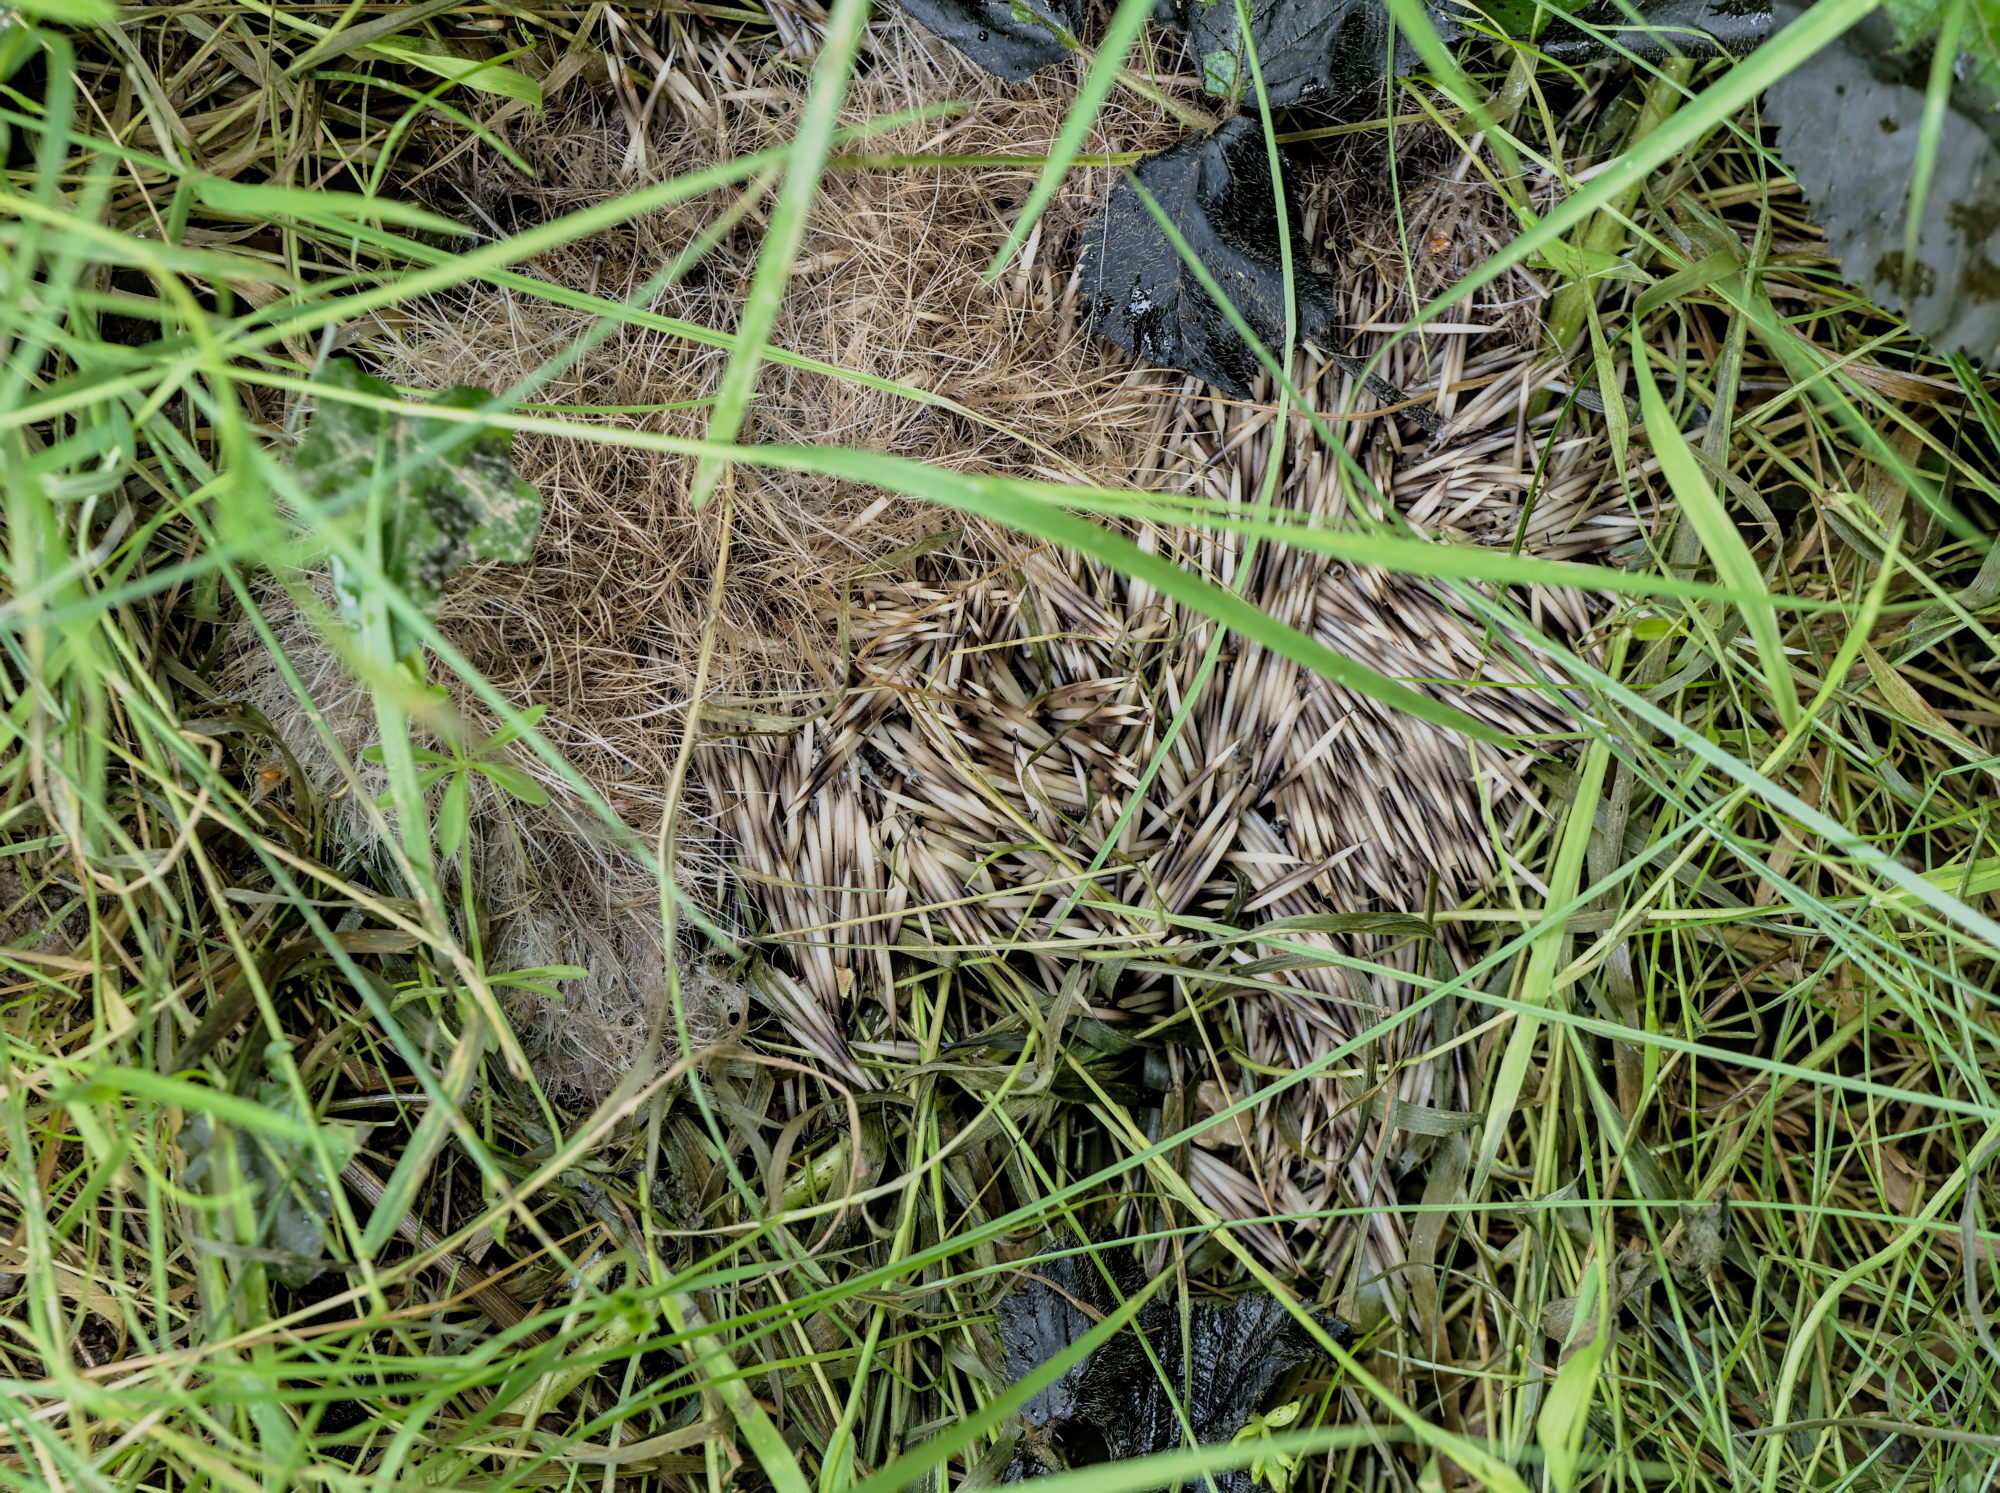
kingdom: Animalia
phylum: Chordata
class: Mammalia
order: Erinaceomorpha
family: Erinaceidae
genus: Erinaceus
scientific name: Erinaceus europaeus
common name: West european hedgehog
